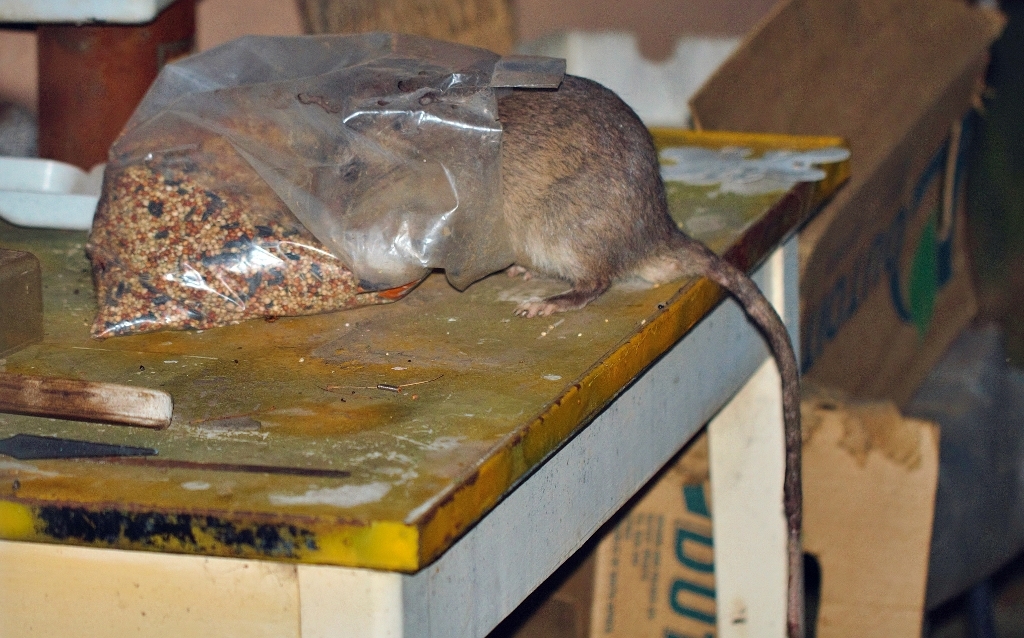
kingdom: Animalia
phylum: Chordata
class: Mammalia
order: Rodentia
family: Nesomyidae
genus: Cricetomys
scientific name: Cricetomys ansorgei
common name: Southern giant pouched rat
